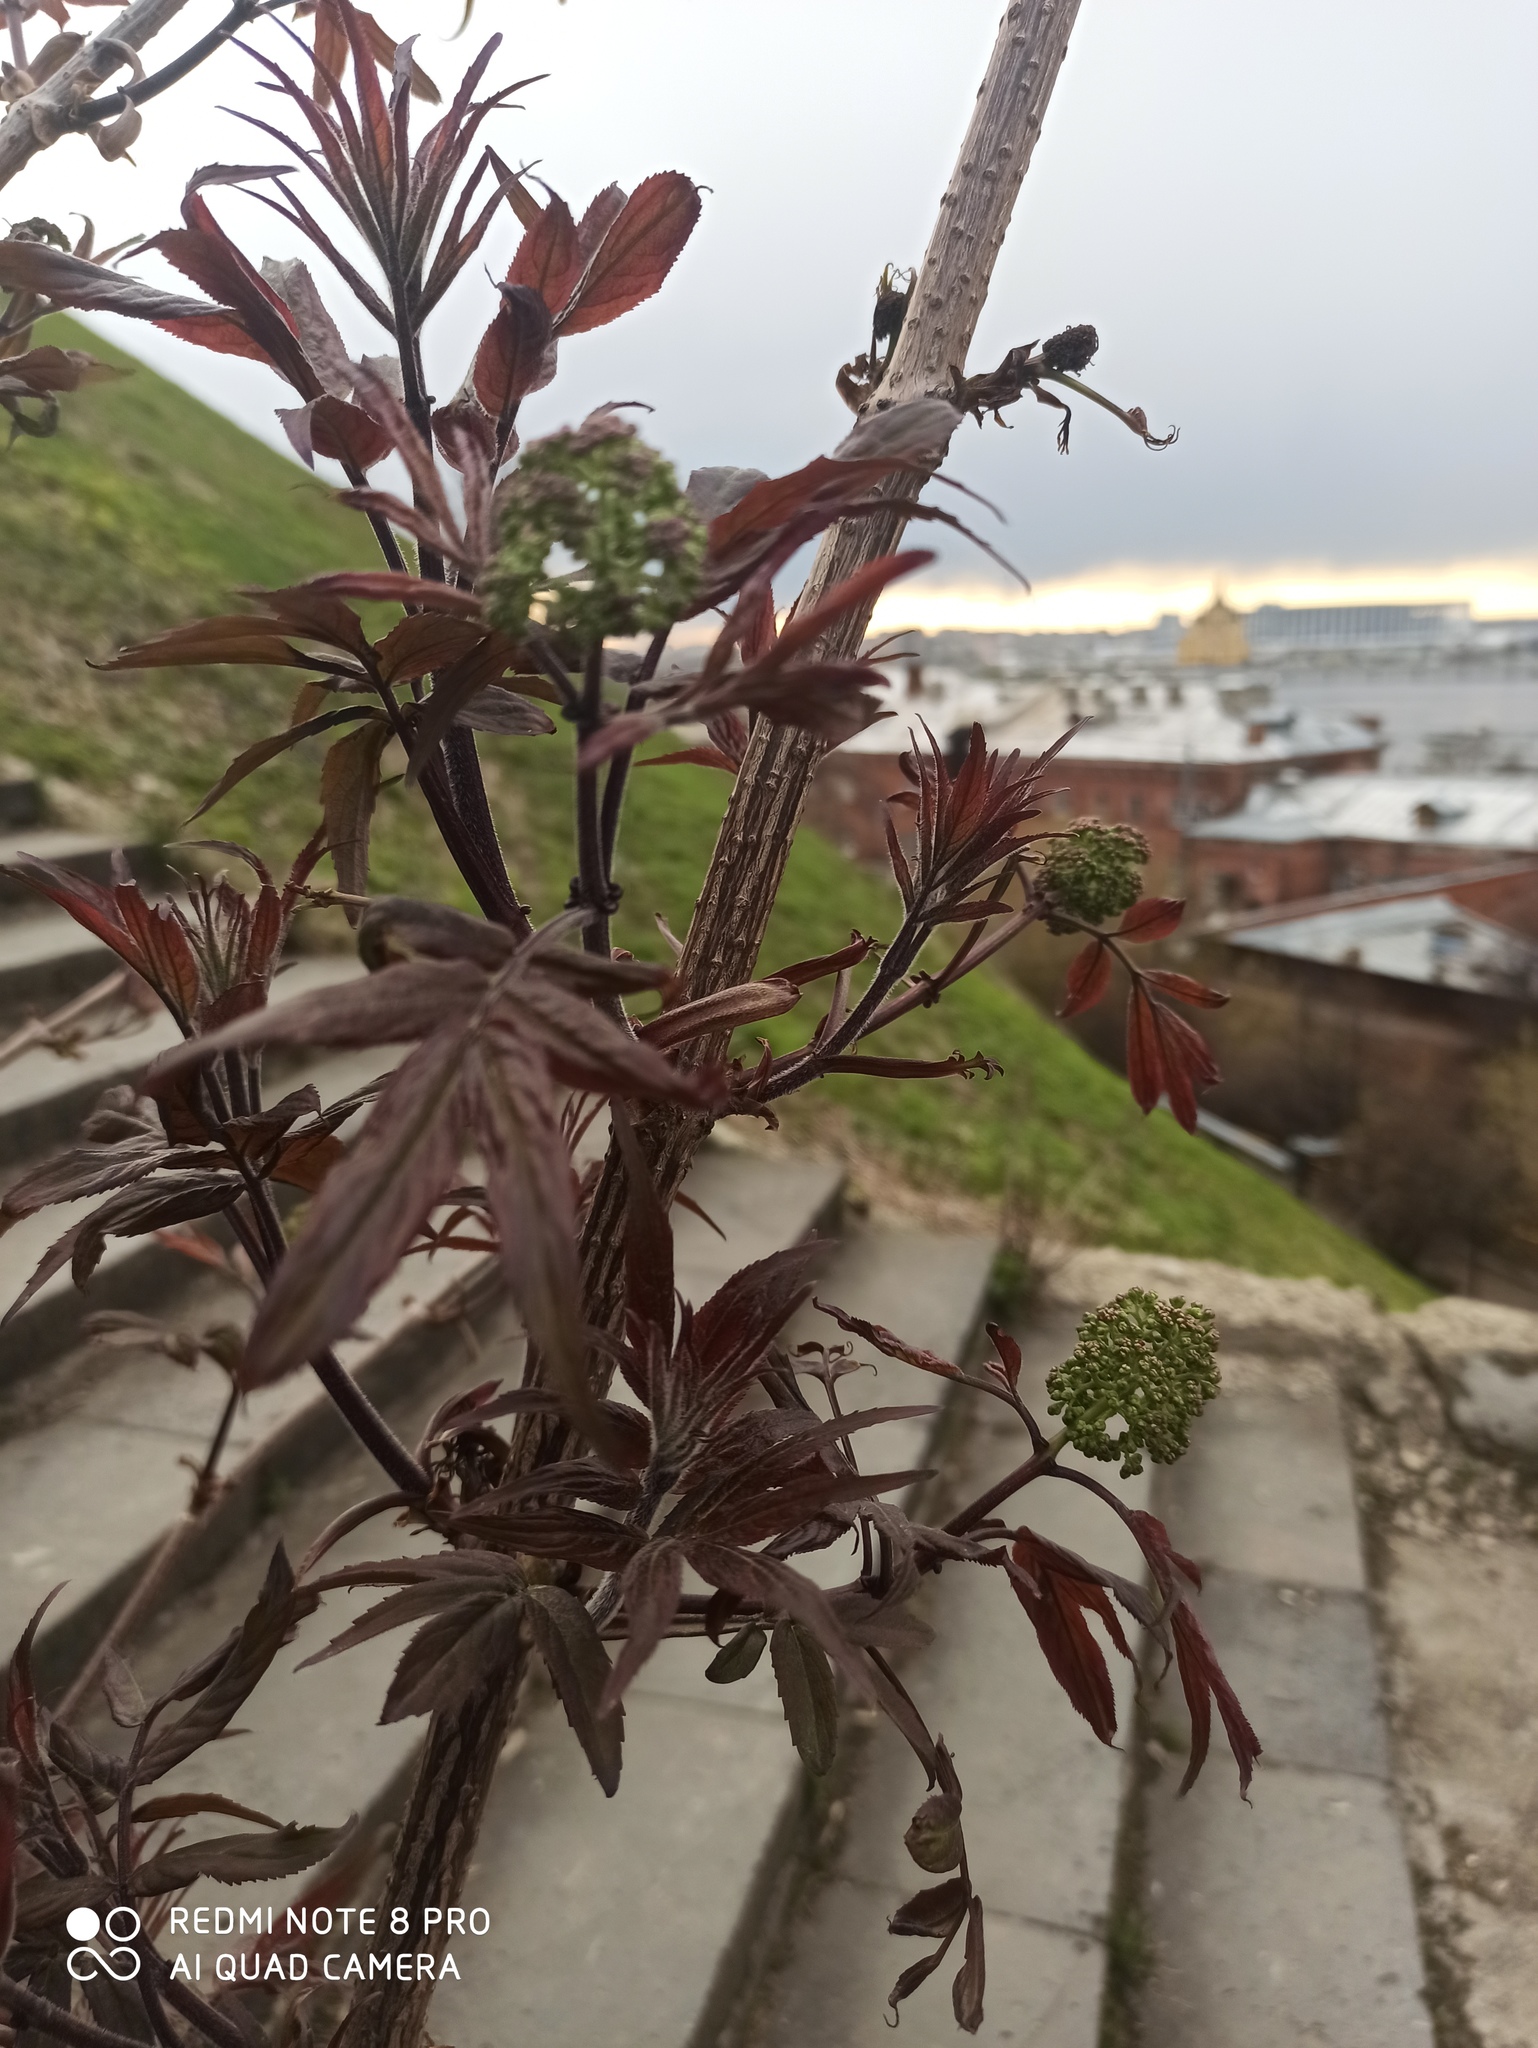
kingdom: Plantae
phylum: Tracheophyta
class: Magnoliopsida
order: Dipsacales
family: Viburnaceae
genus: Sambucus
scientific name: Sambucus racemosa
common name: Red-berried elder
